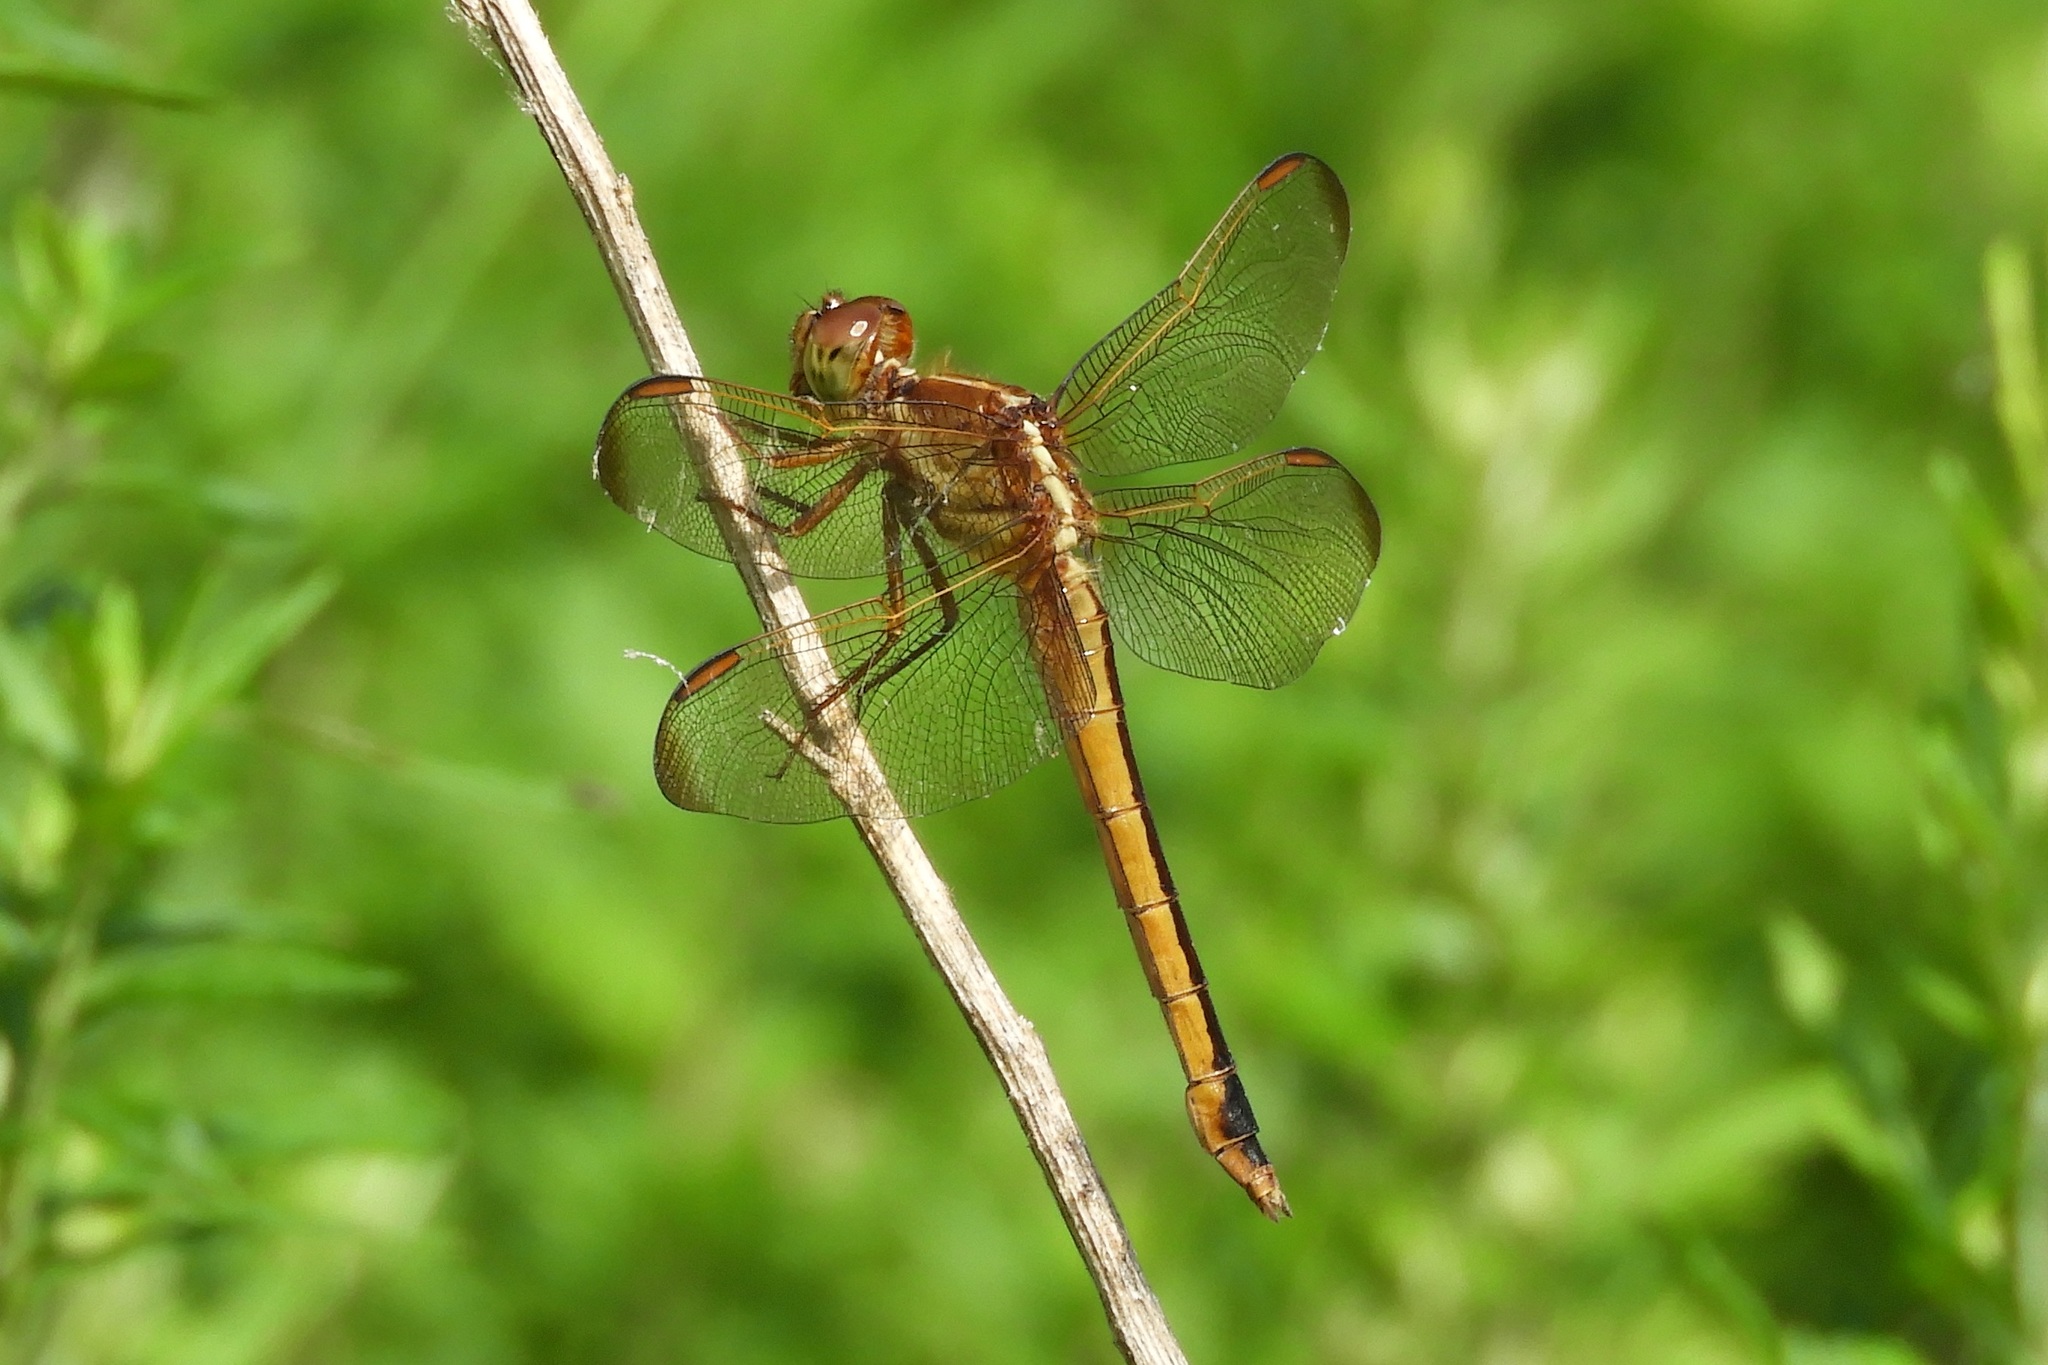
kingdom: Animalia
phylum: Arthropoda
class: Insecta
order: Odonata
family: Libellulidae
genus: Libellula
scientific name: Libellula needhami
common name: Needham's skimmer
